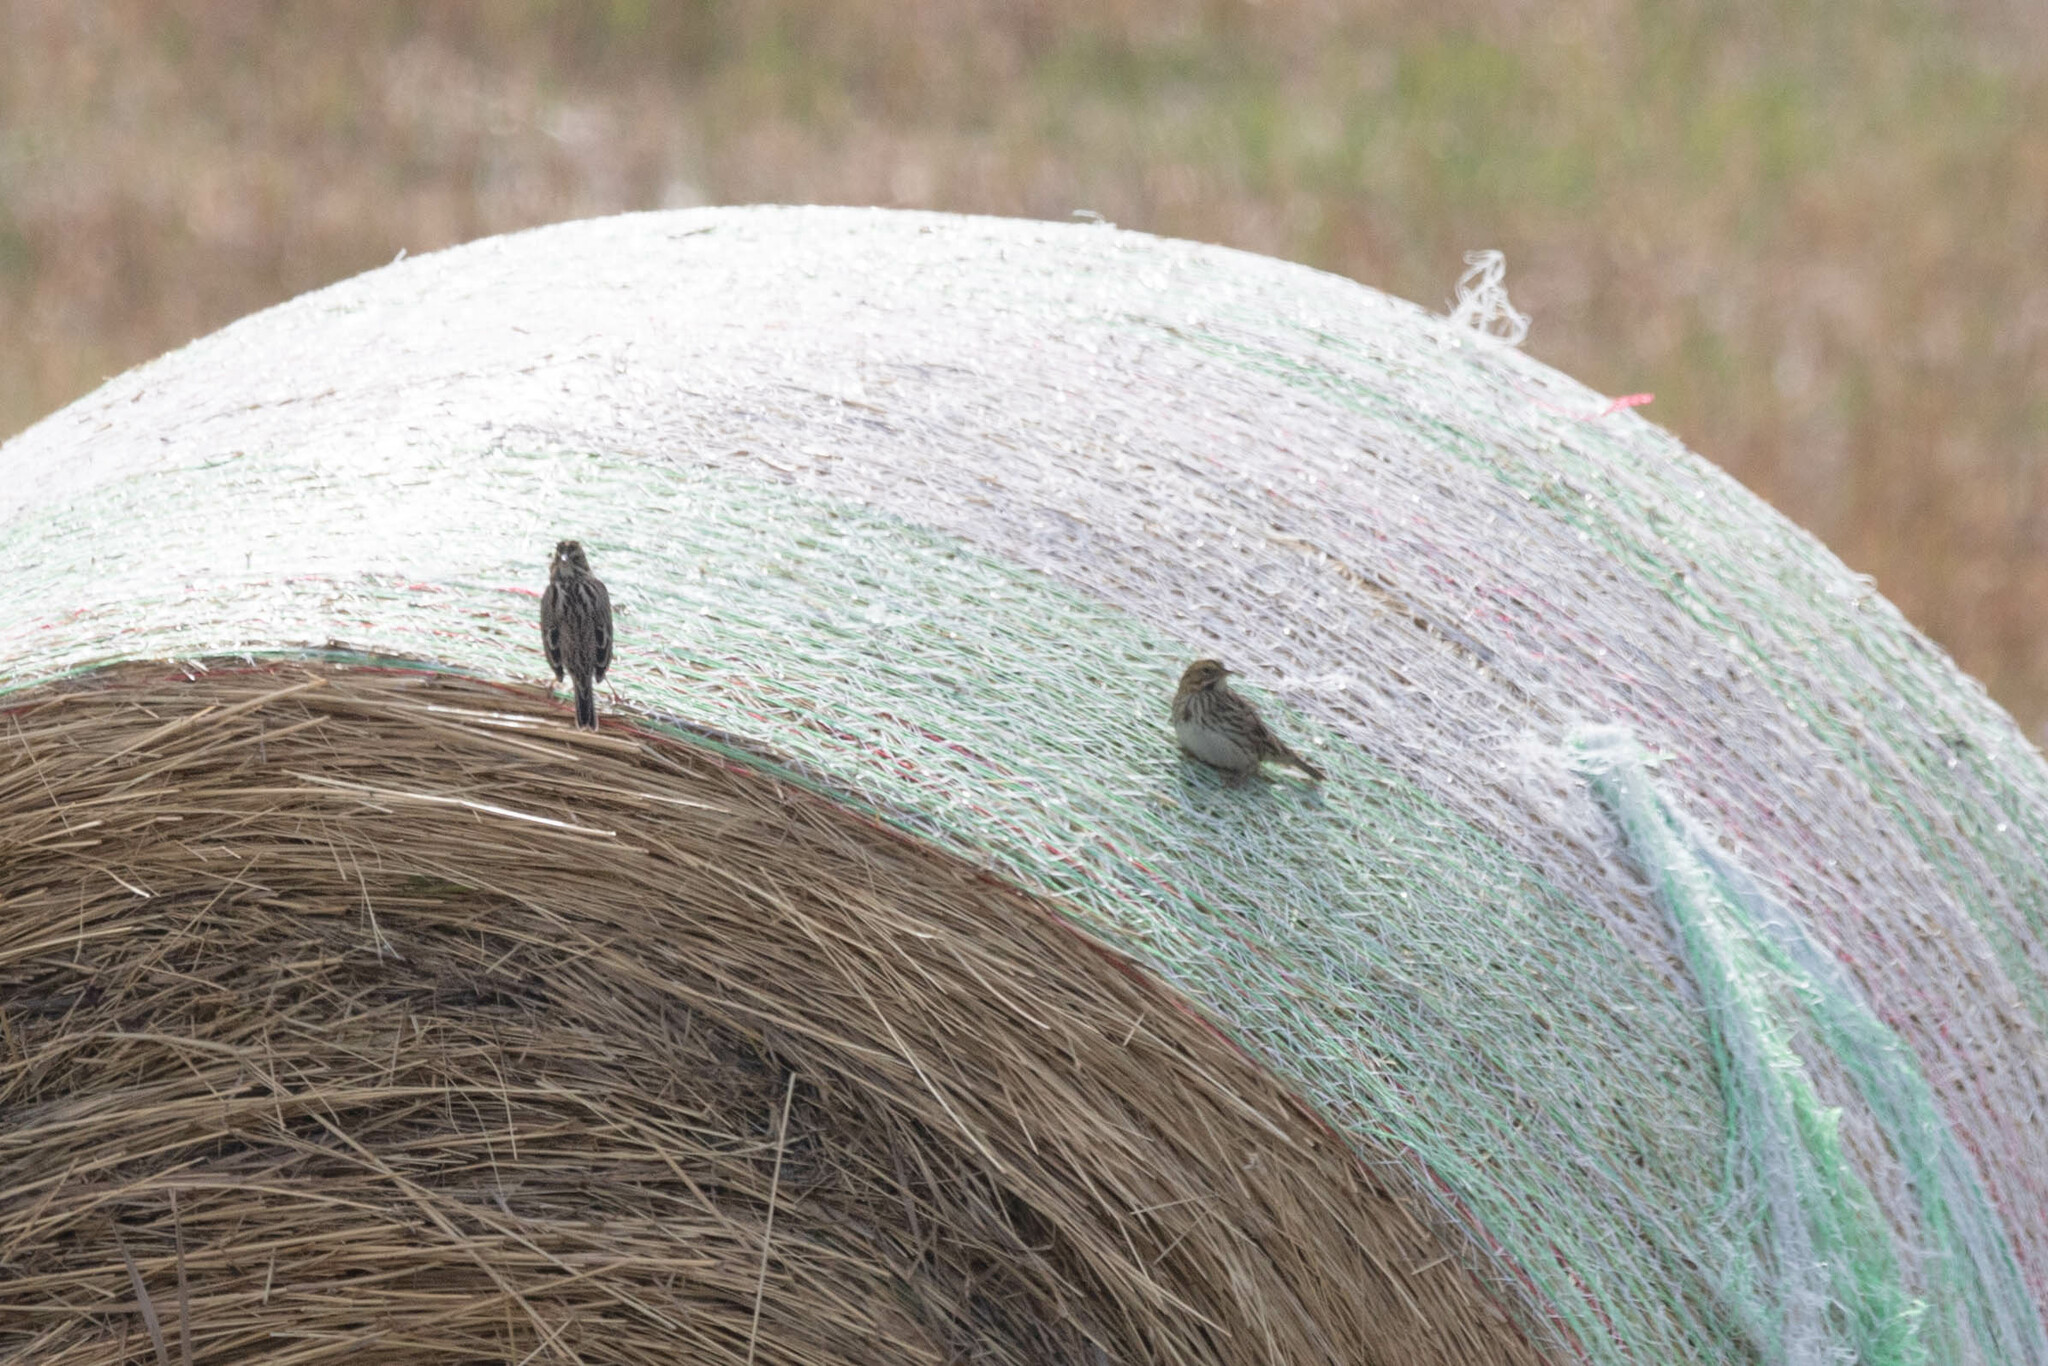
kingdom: Animalia
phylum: Chordata
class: Aves
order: Passeriformes
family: Passerellidae
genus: Passerculus
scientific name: Passerculus sandwichensis
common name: Savannah sparrow
